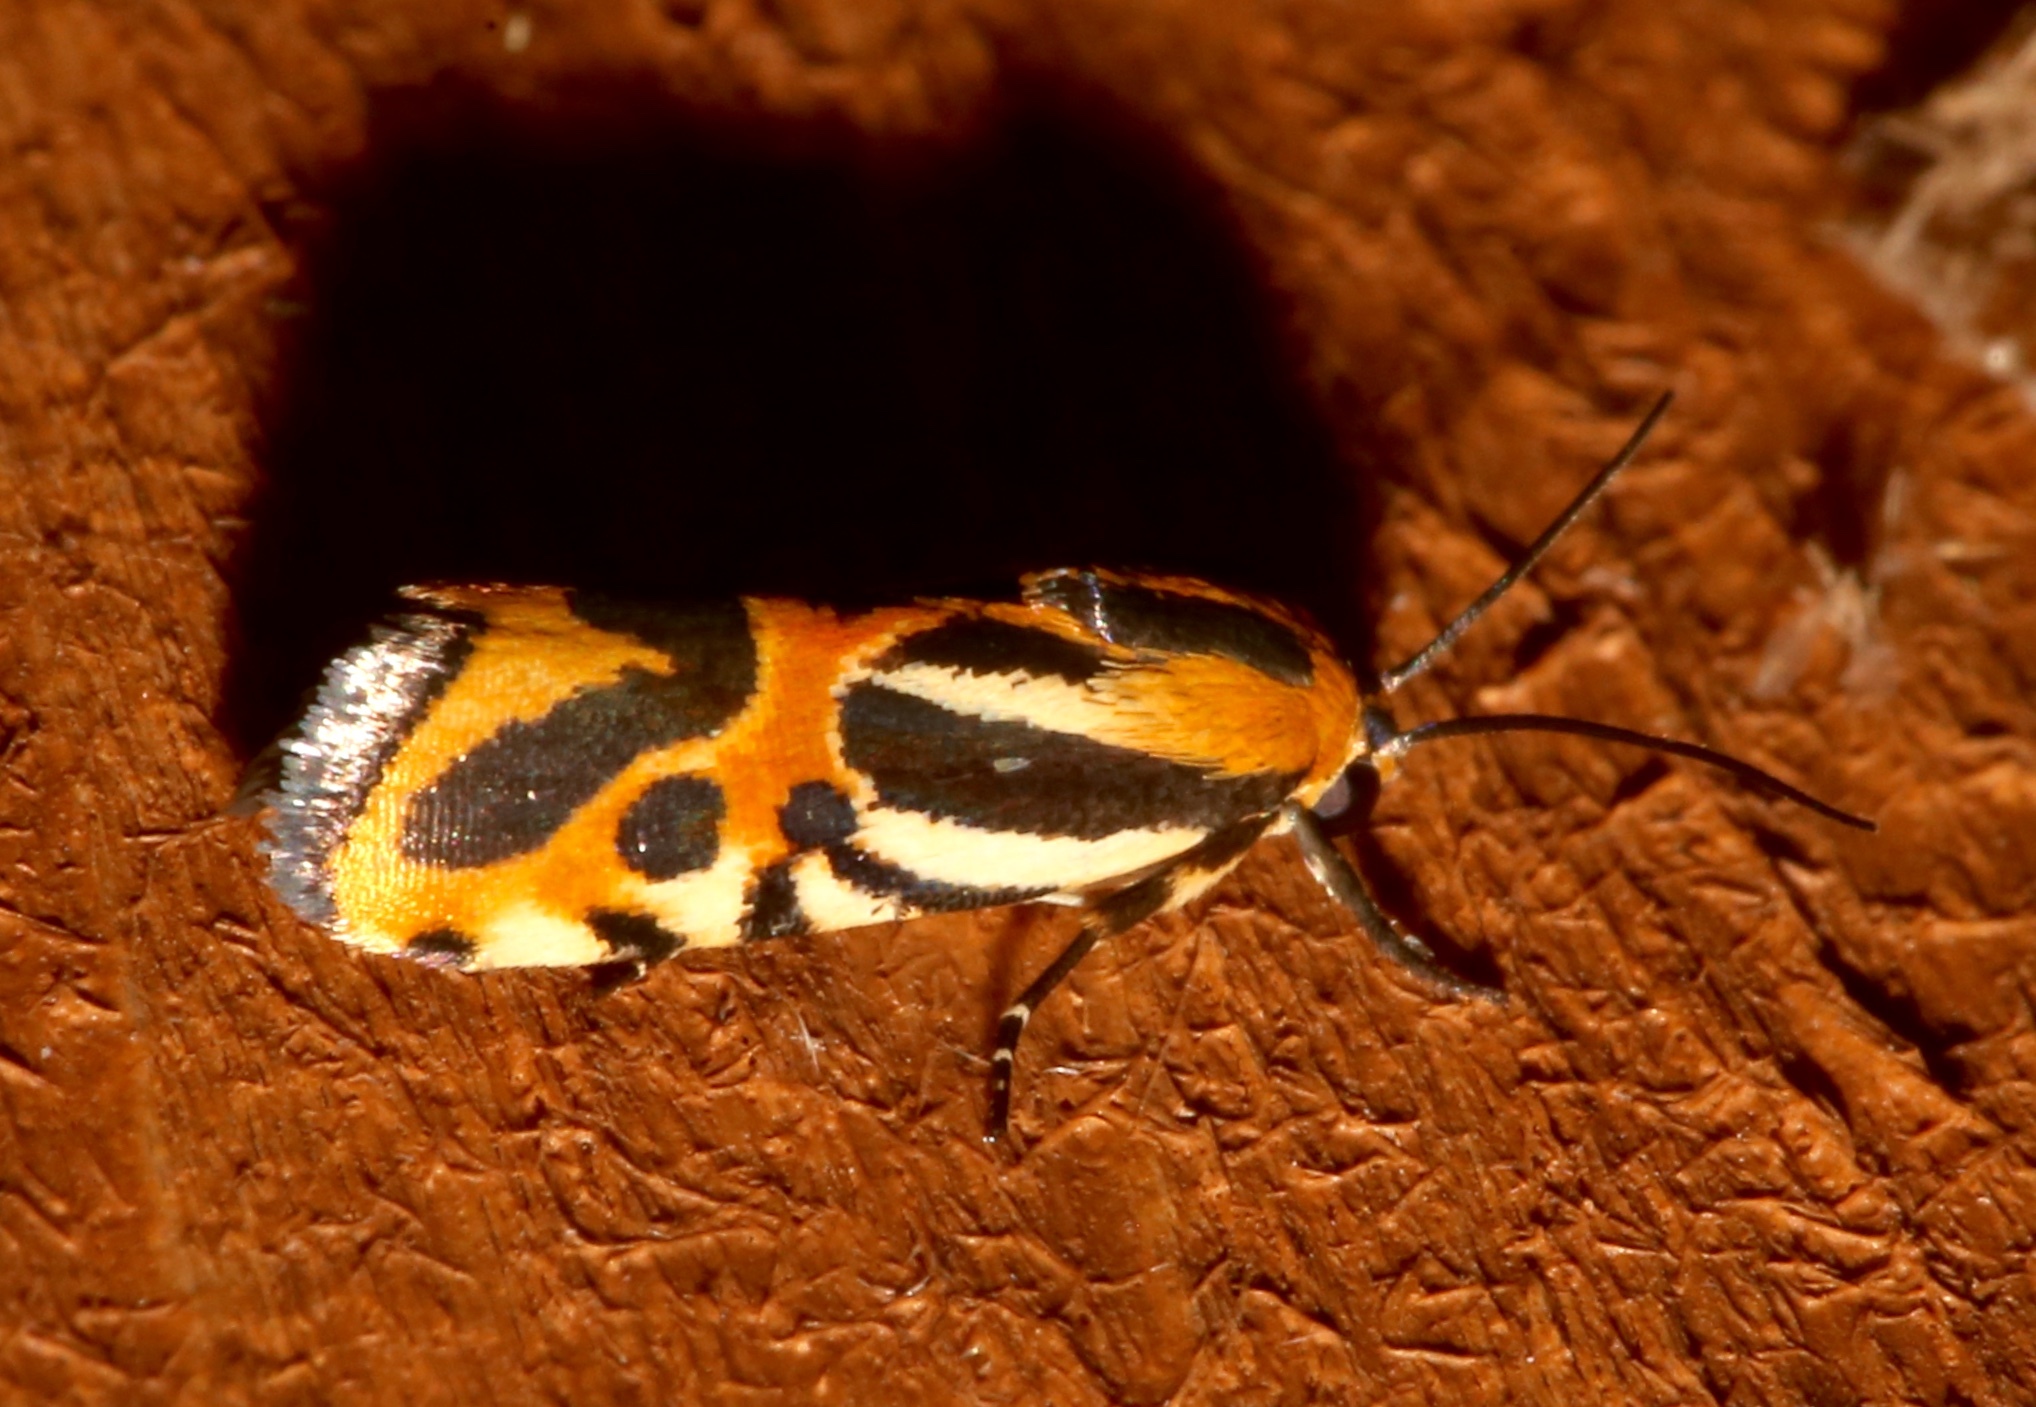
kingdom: Animalia
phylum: Arthropoda
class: Insecta
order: Lepidoptera
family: Noctuidae
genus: Acontia
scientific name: Acontia onagrus
